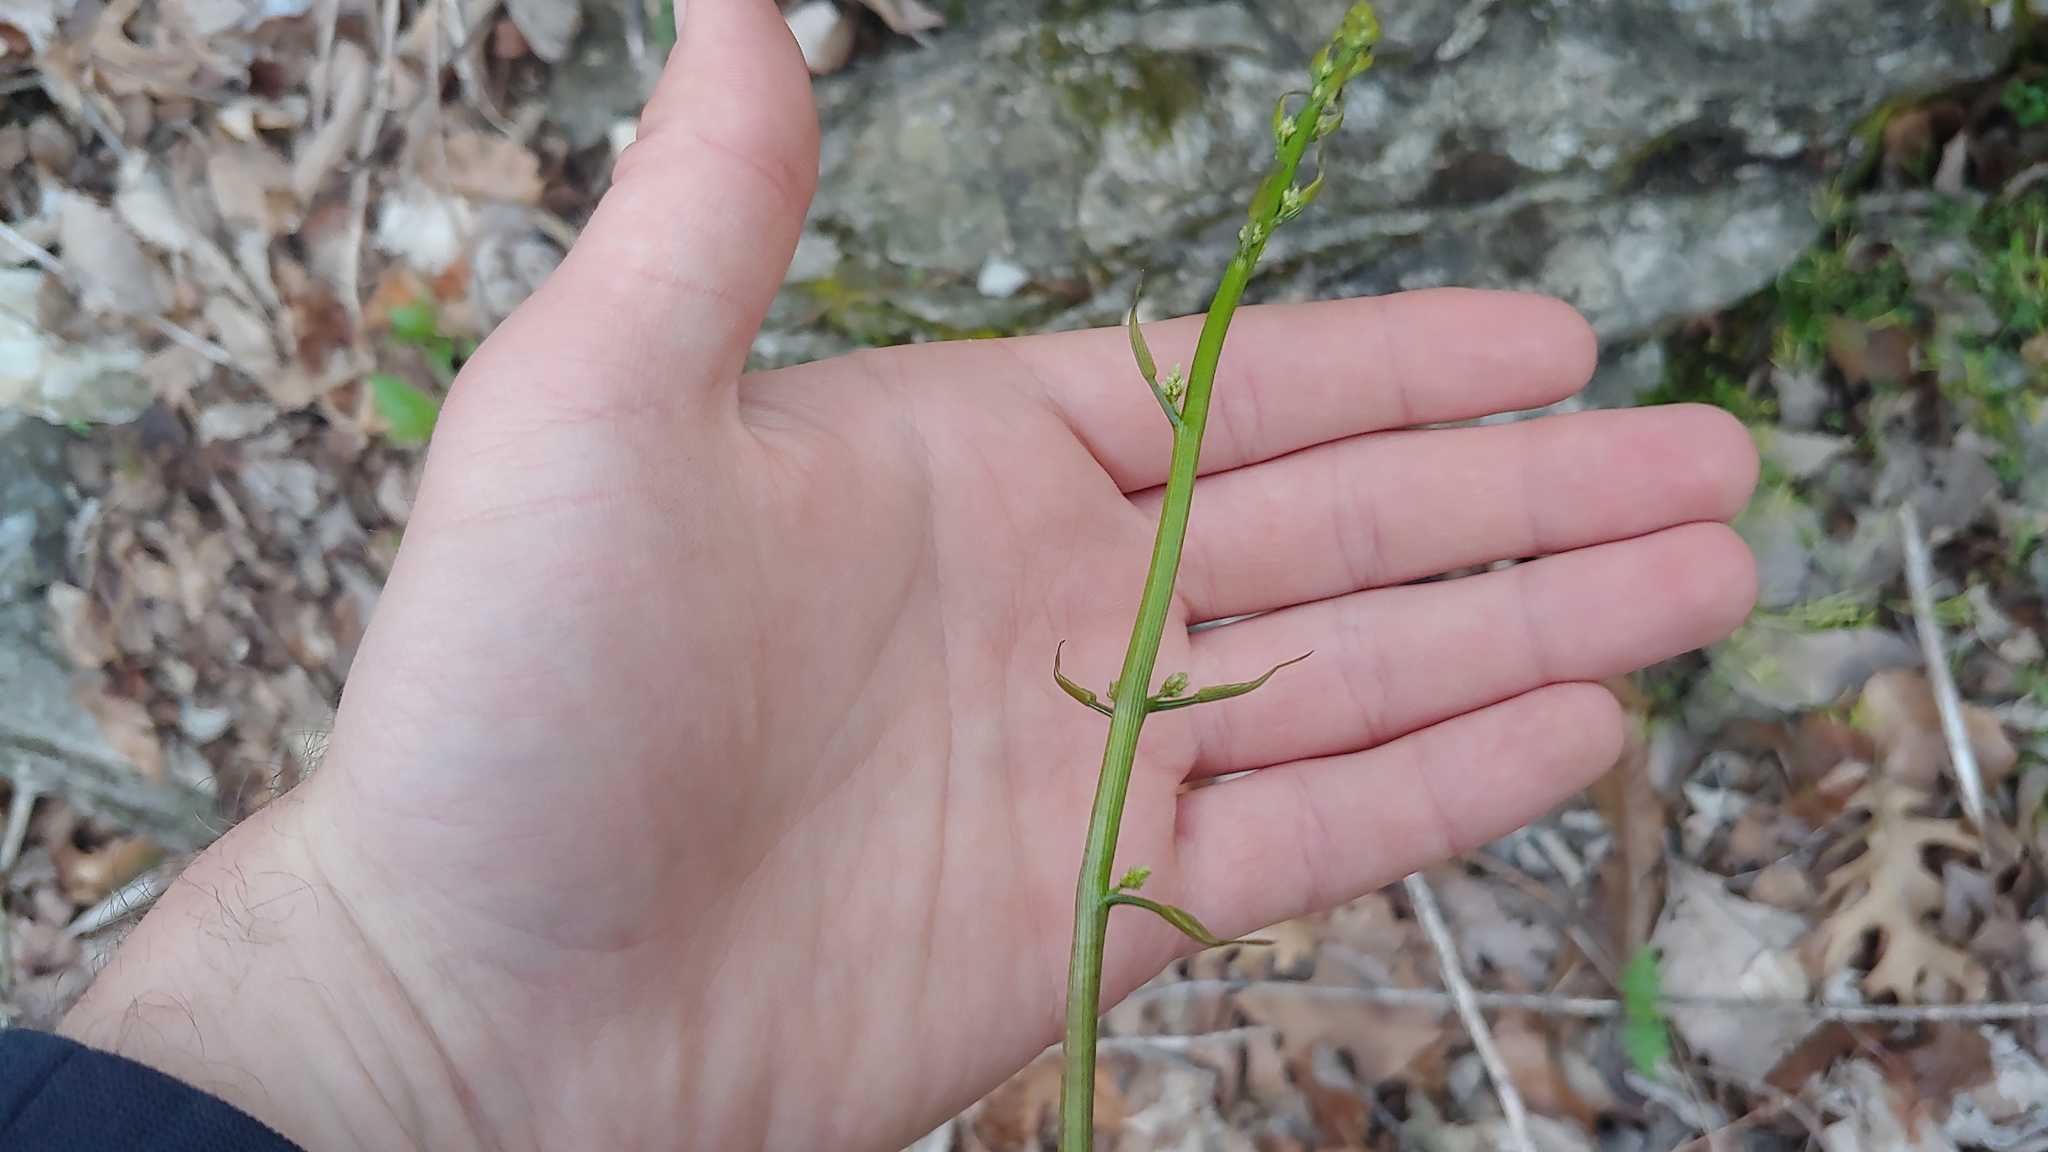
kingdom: Plantae
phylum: Tracheophyta
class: Liliopsida
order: Dioscoreales
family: Dioscoreaceae
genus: Dioscorea
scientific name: Dioscorea villosa
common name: Wild yam
